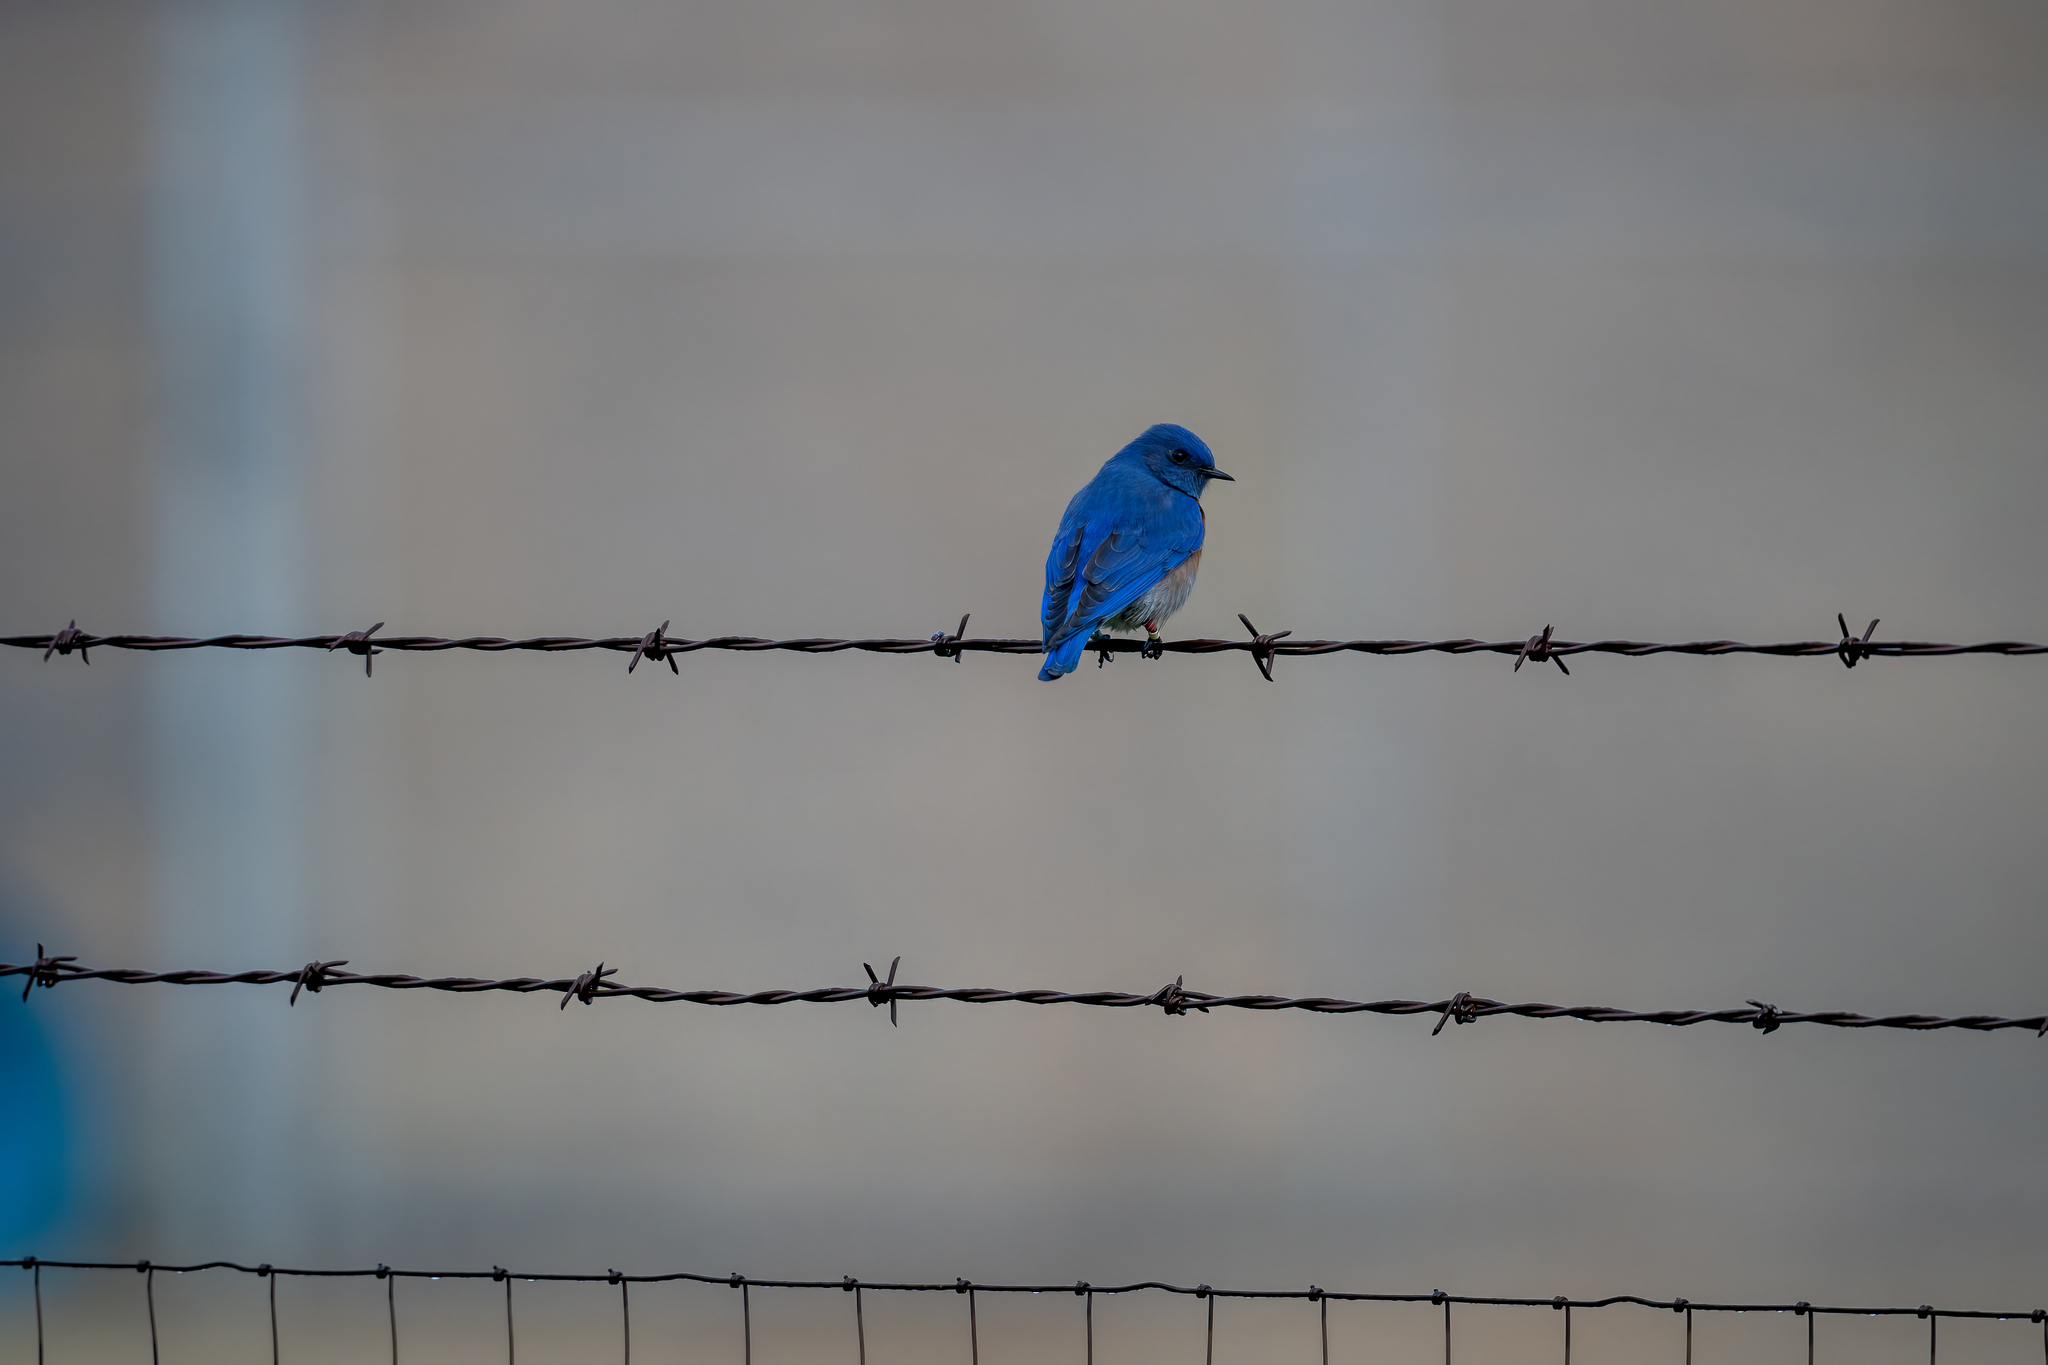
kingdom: Animalia
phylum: Chordata
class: Aves
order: Passeriformes
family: Turdidae
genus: Sialia
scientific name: Sialia mexicana
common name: Western bluebird
